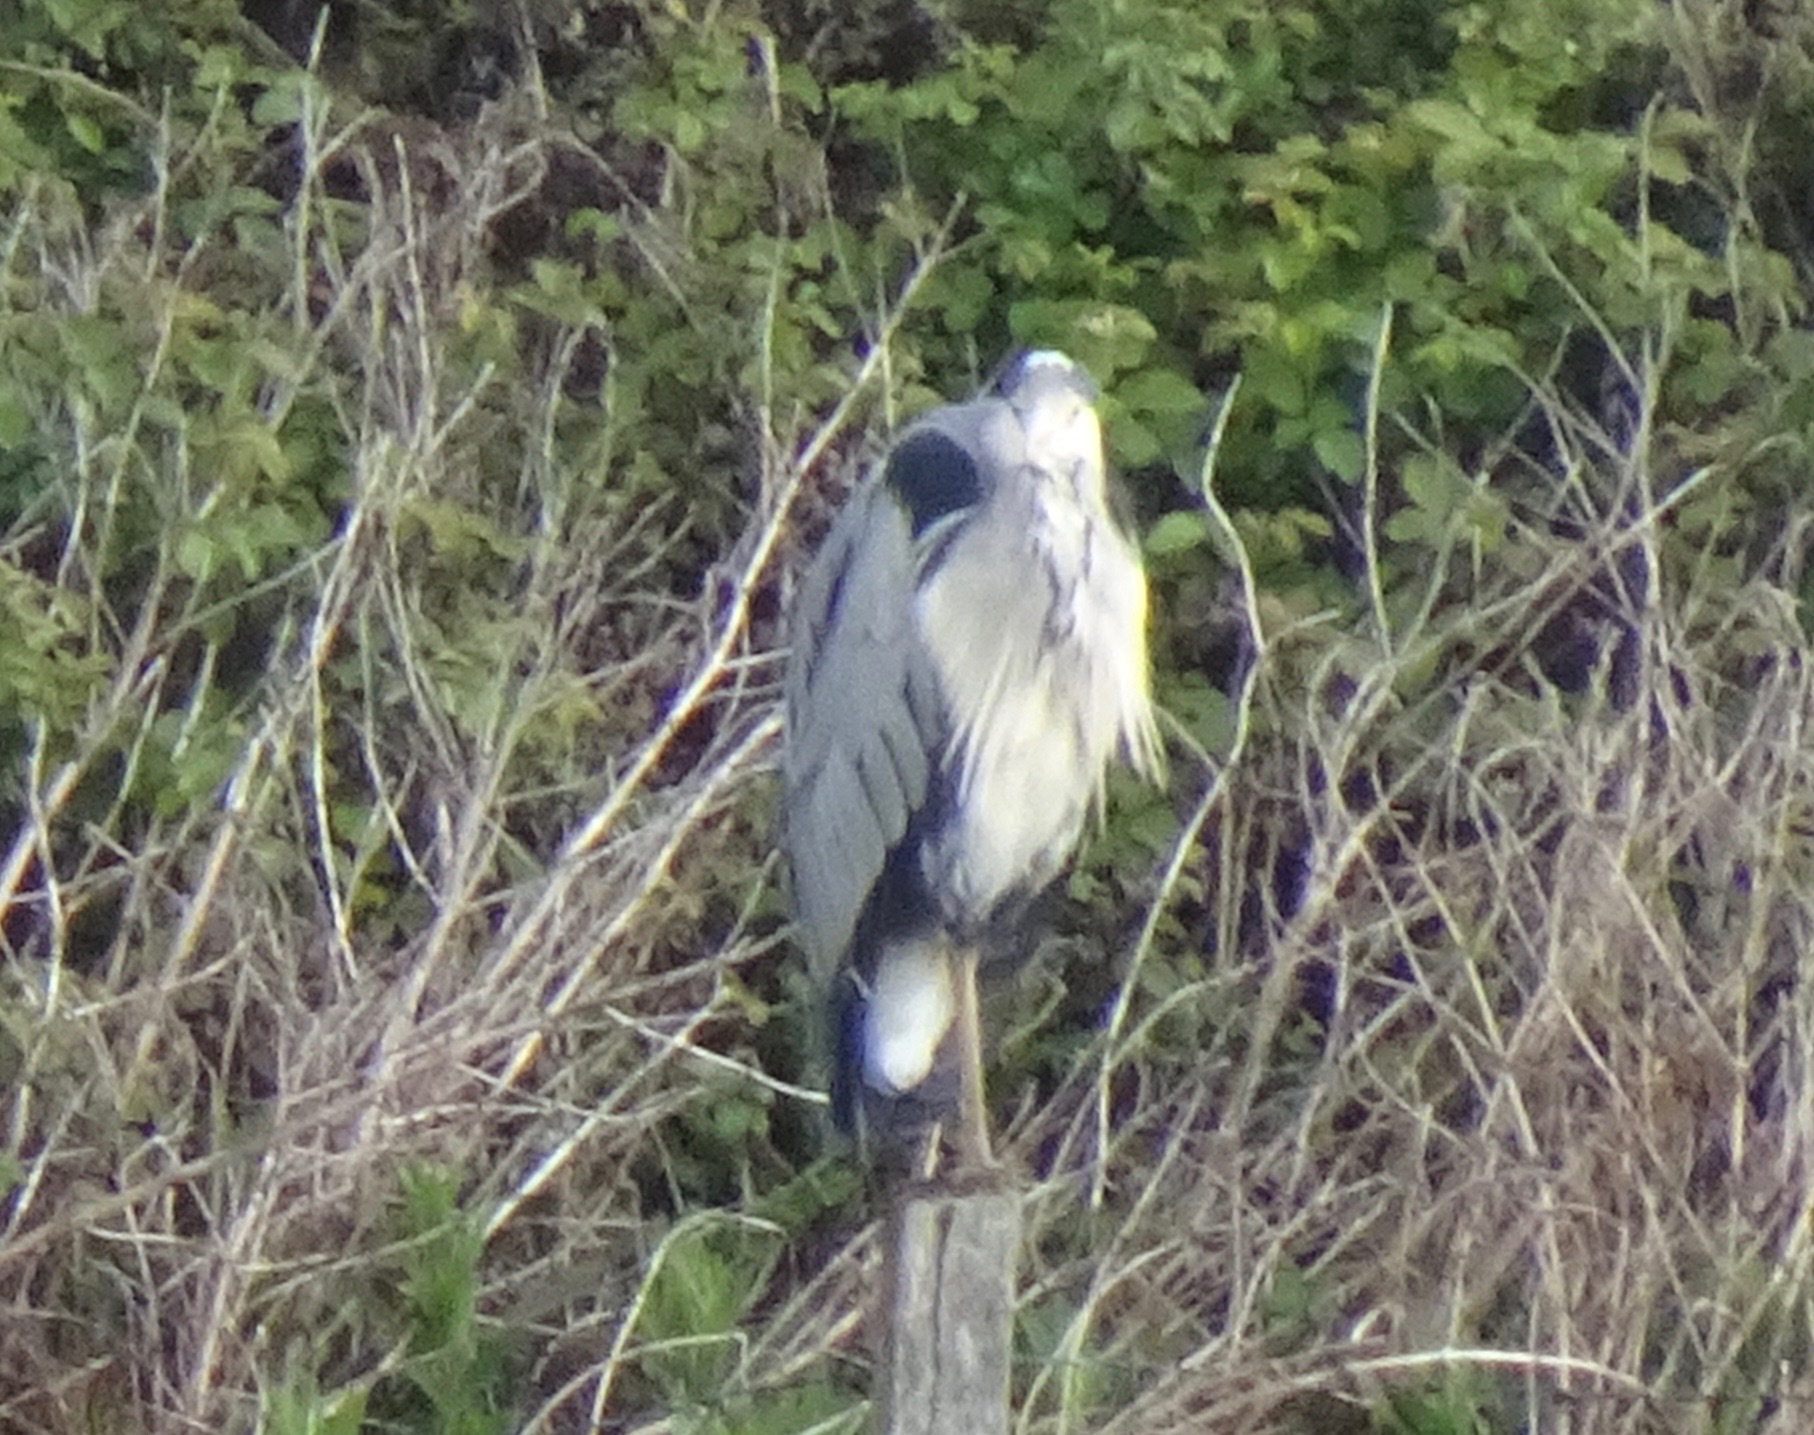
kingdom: Animalia
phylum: Chordata
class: Aves
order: Pelecaniformes
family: Ardeidae
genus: Ardea
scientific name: Ardea cinerea
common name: Grey heron
